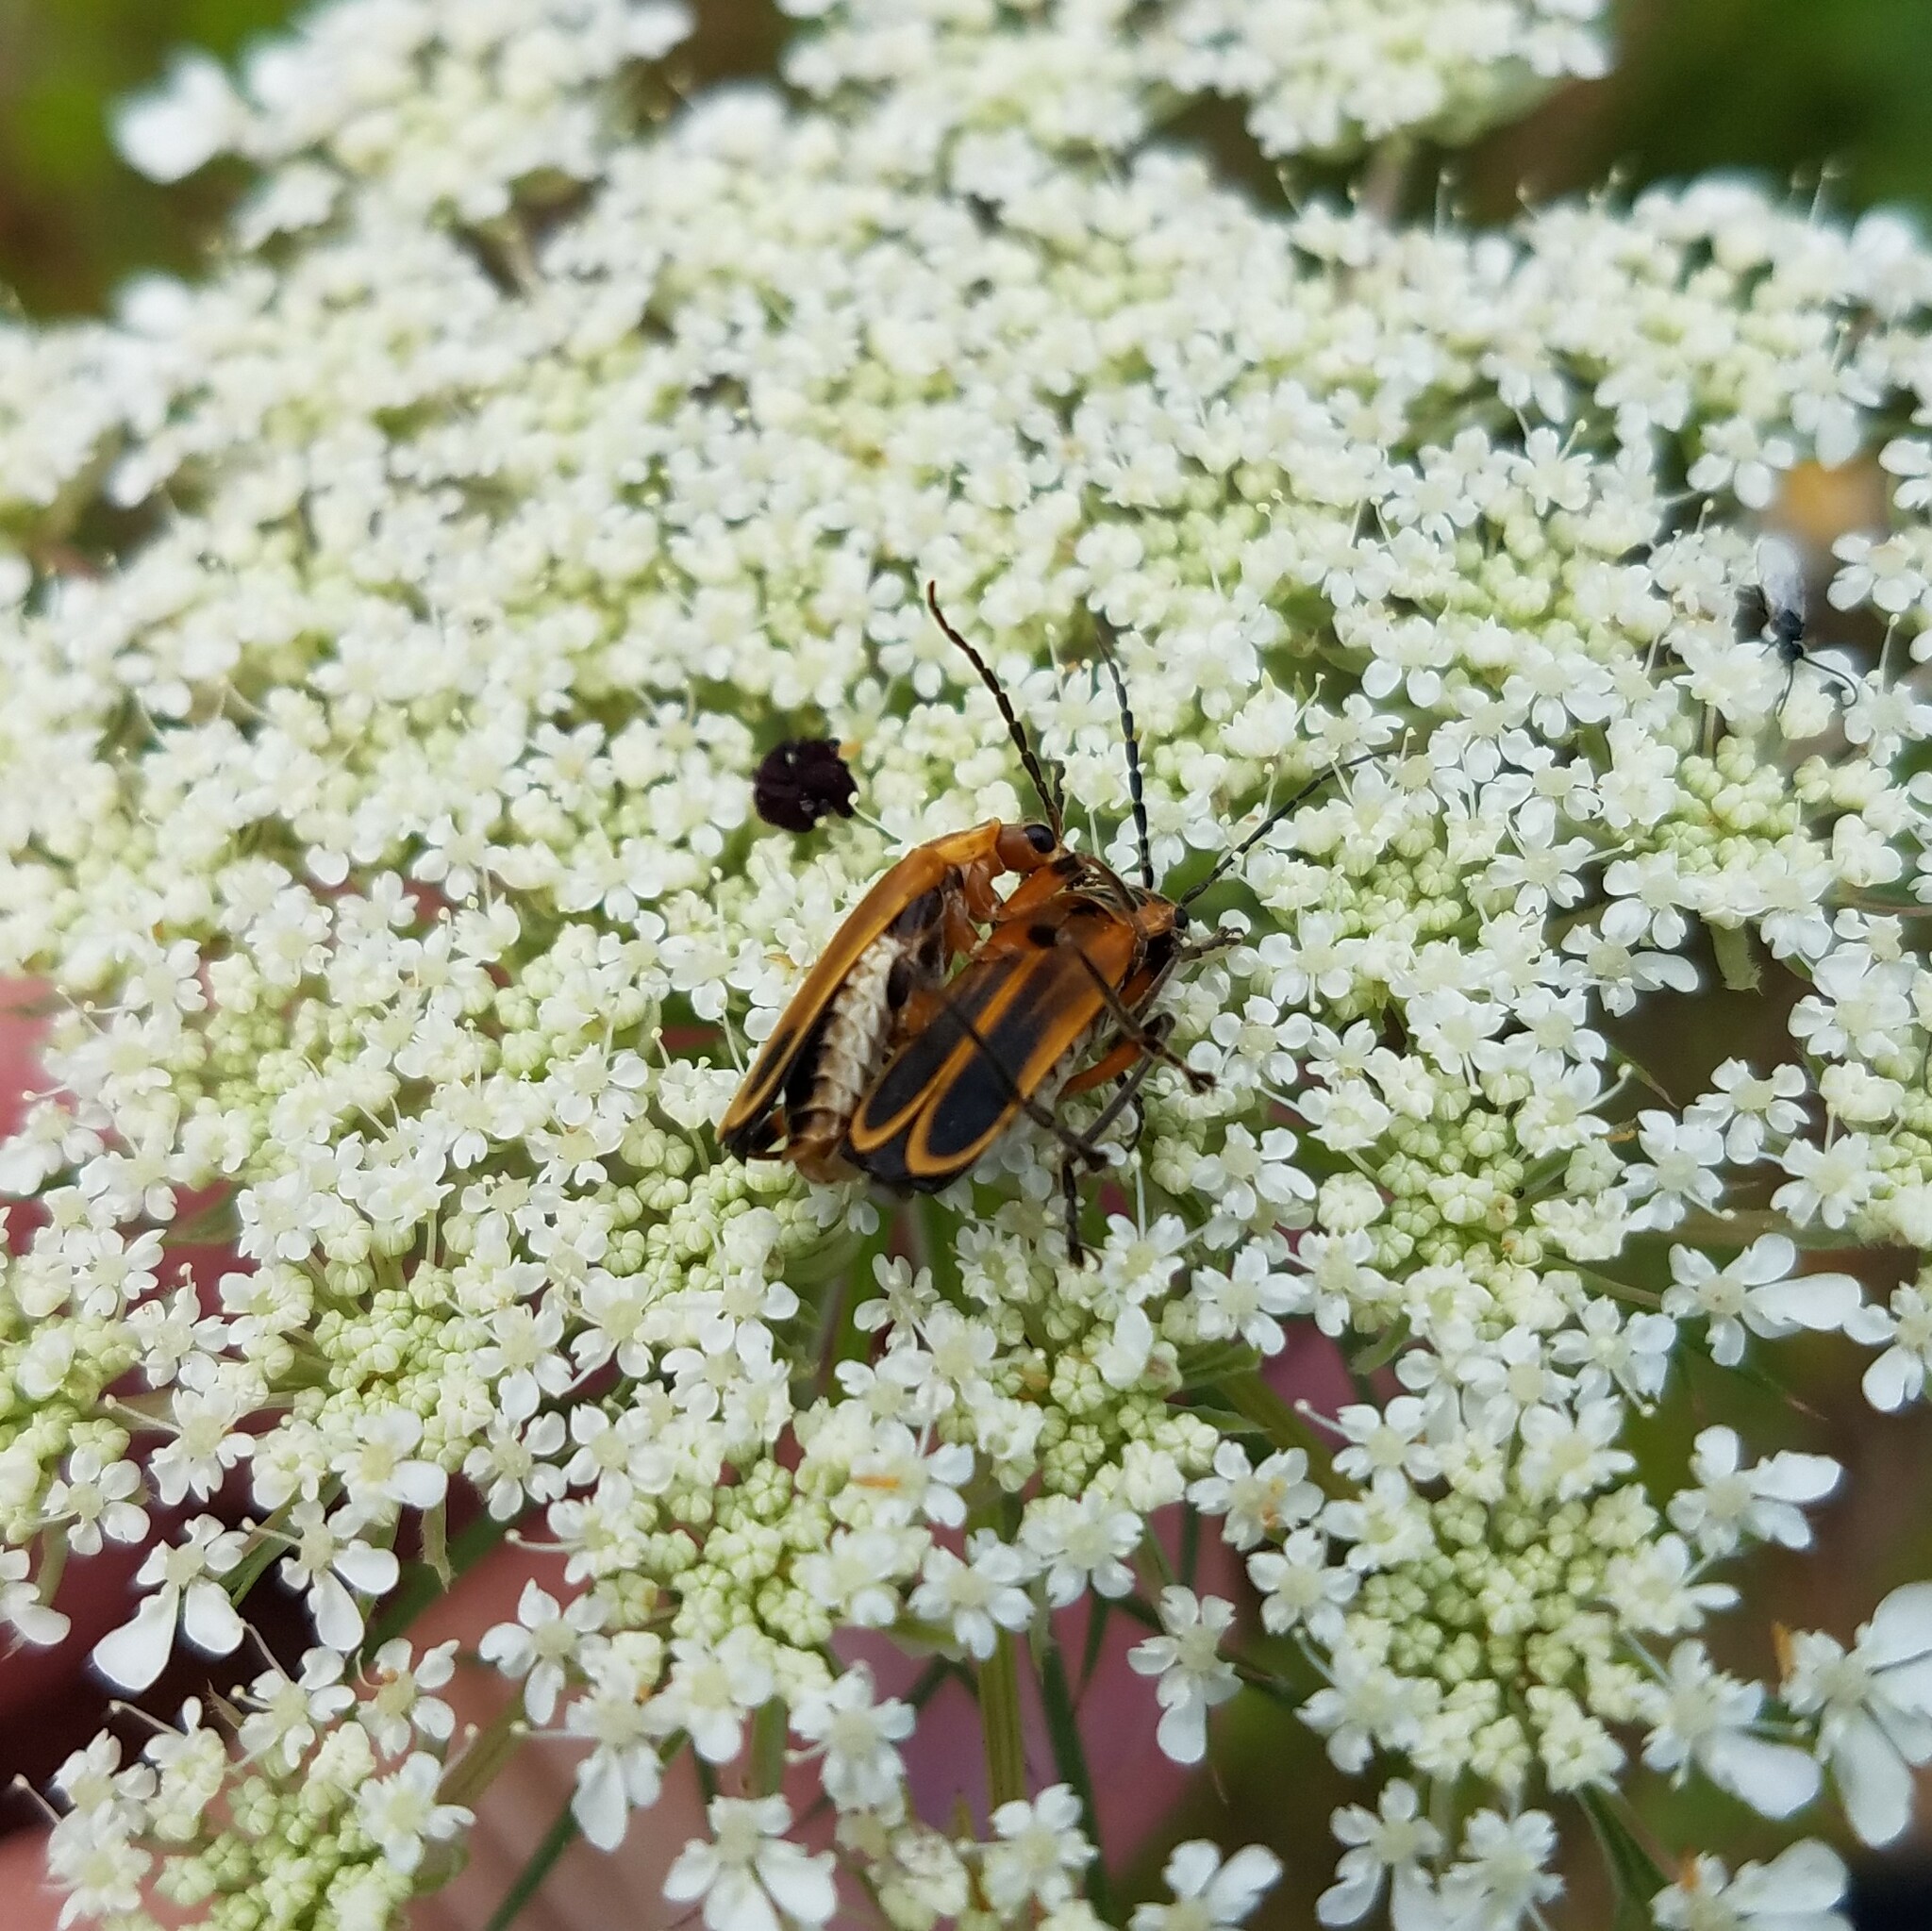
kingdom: Animalia
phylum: Arthropoda
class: Insecta
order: Coleoptera
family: Cantharidae
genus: Chauliognathus
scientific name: Chauliognathus marginatus
